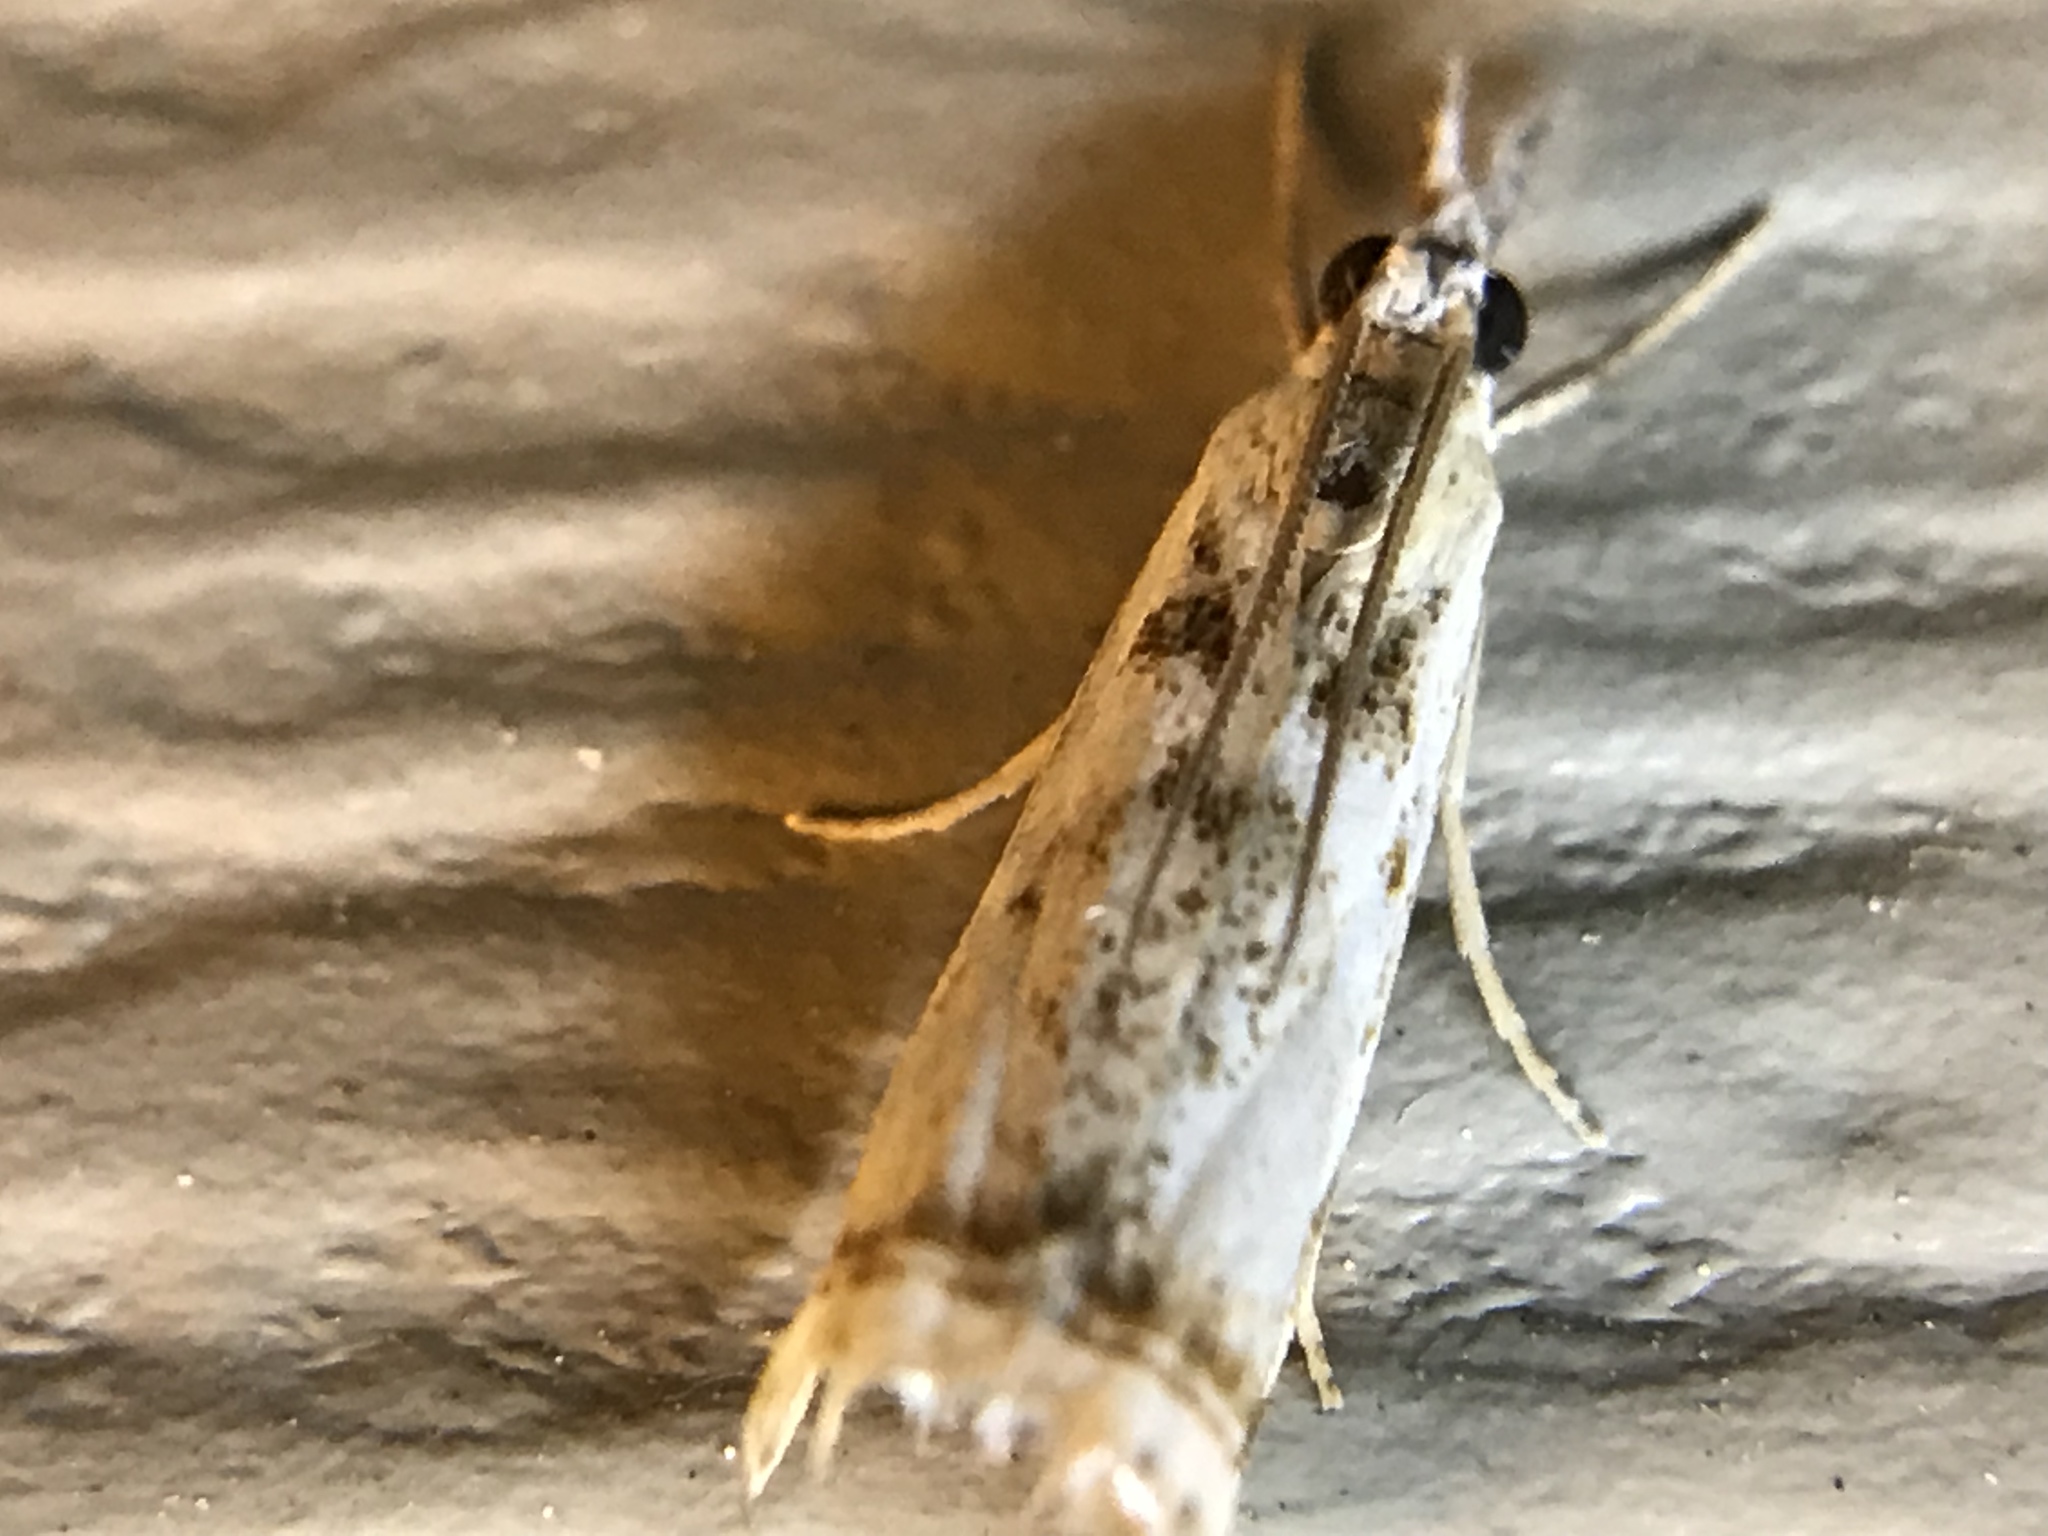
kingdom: Animalia
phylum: Arthropoda
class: Insecta
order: Lepidoptera
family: Crambidae
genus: Microcrambus
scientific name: Microcrambus elegans
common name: Elegant grass-veneer
